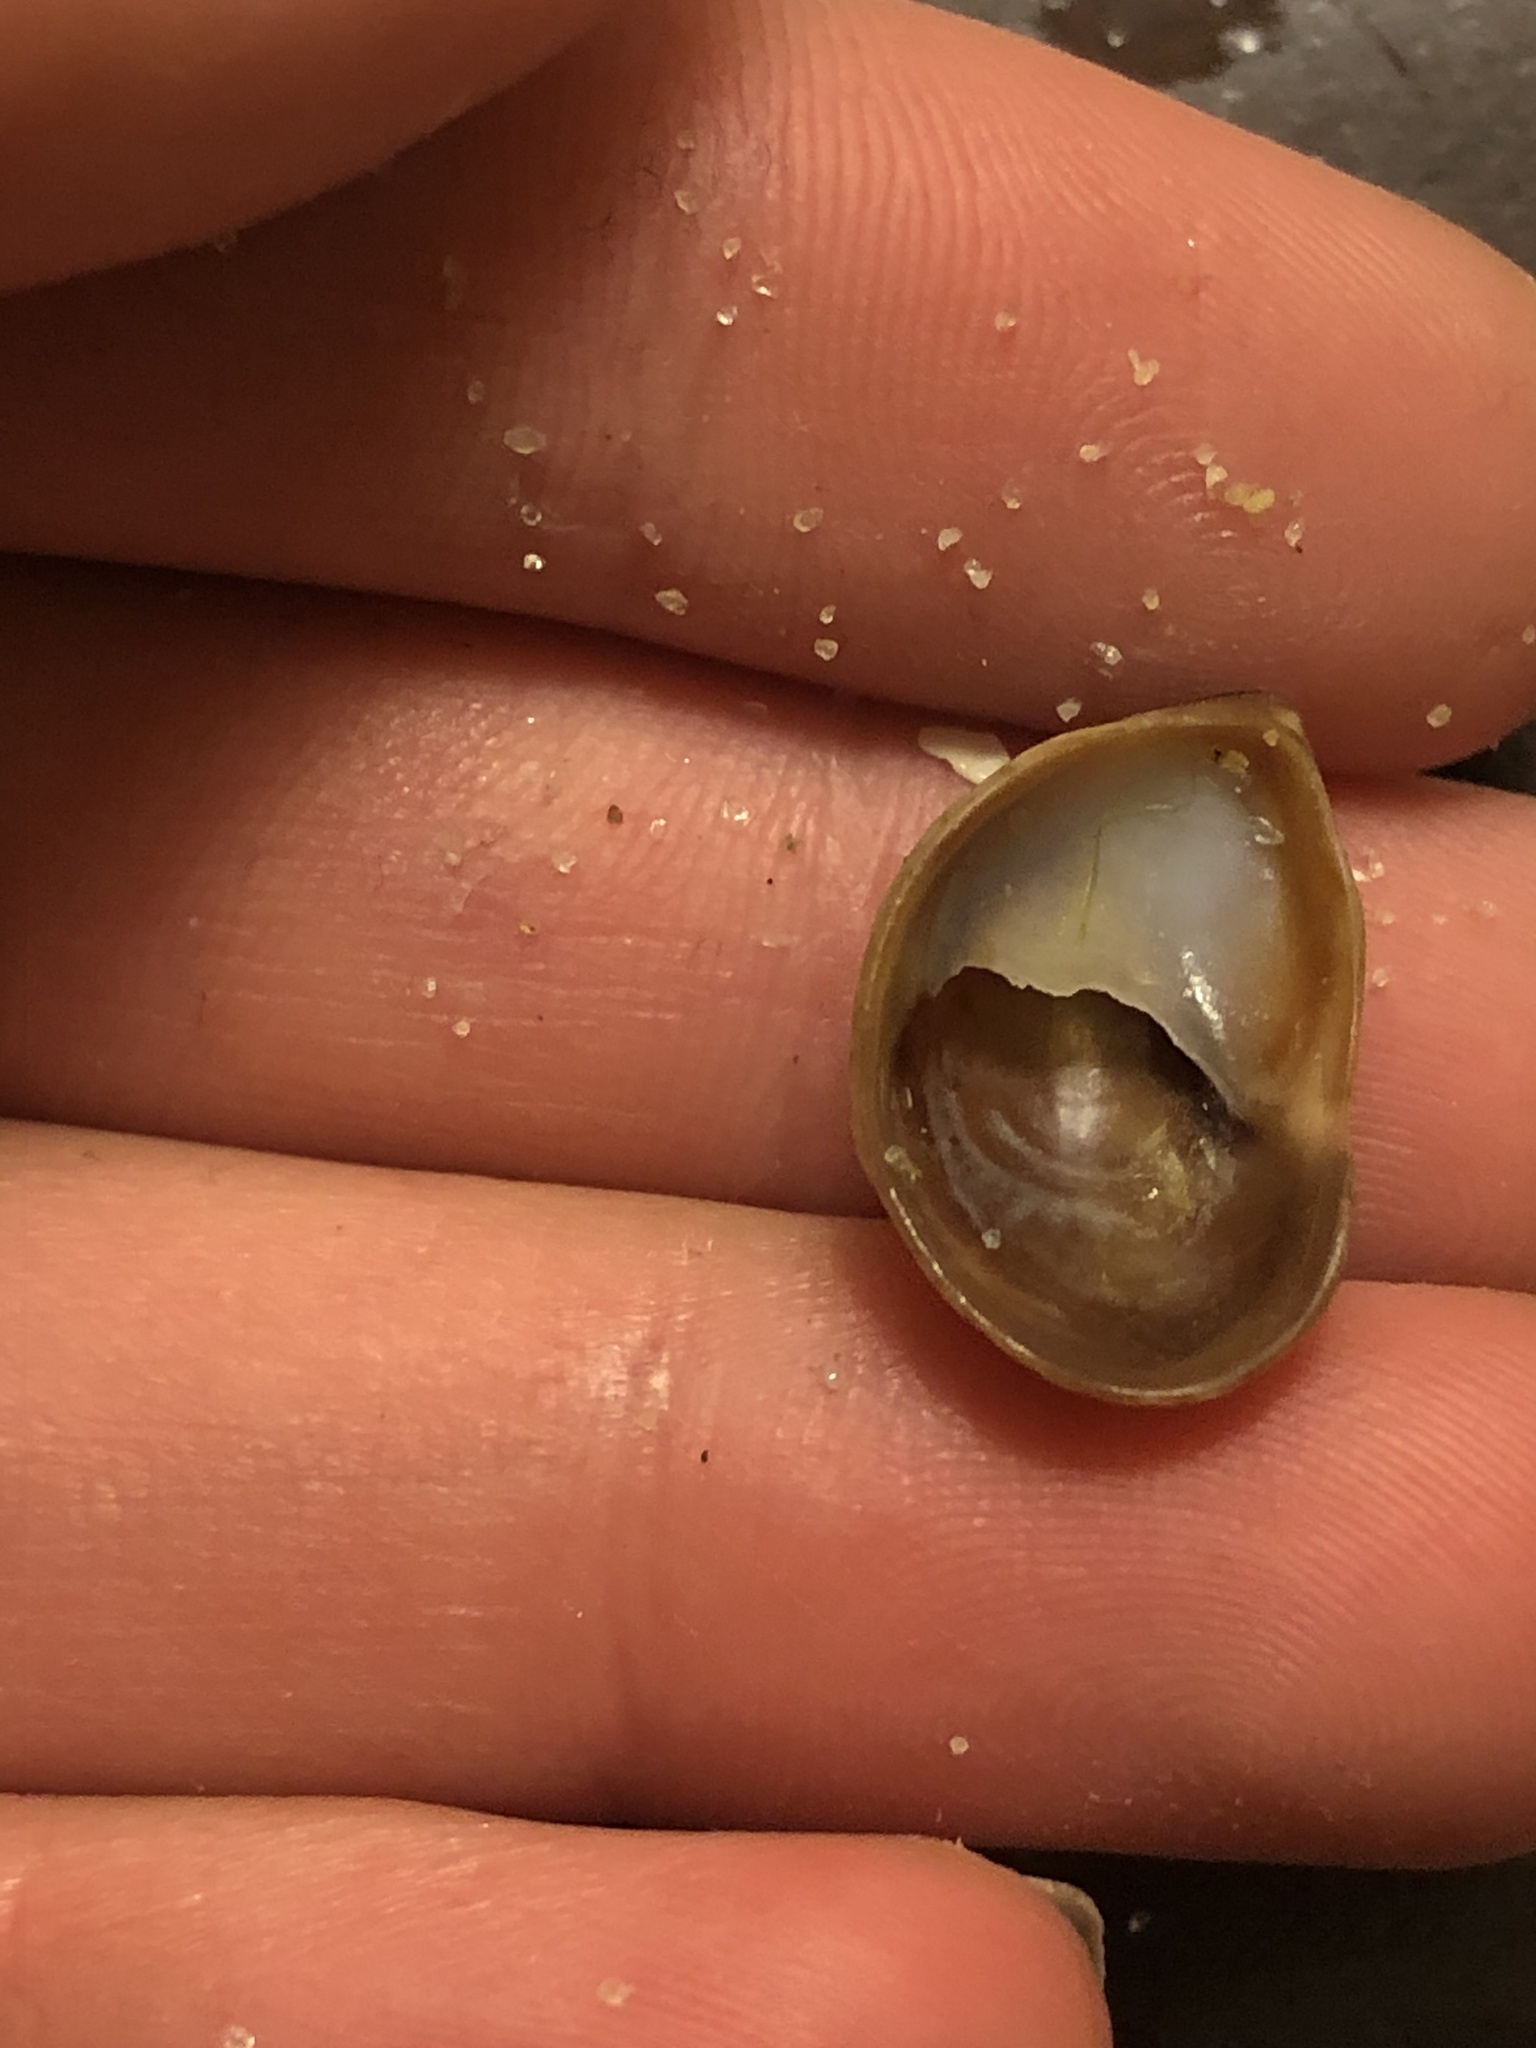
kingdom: Animalia
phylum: Mollusca
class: Gastropoda
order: Littorinimorpha
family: Calyptraeidae
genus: Crepidula
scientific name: Crepidula onyx
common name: Onyx slippersnail
